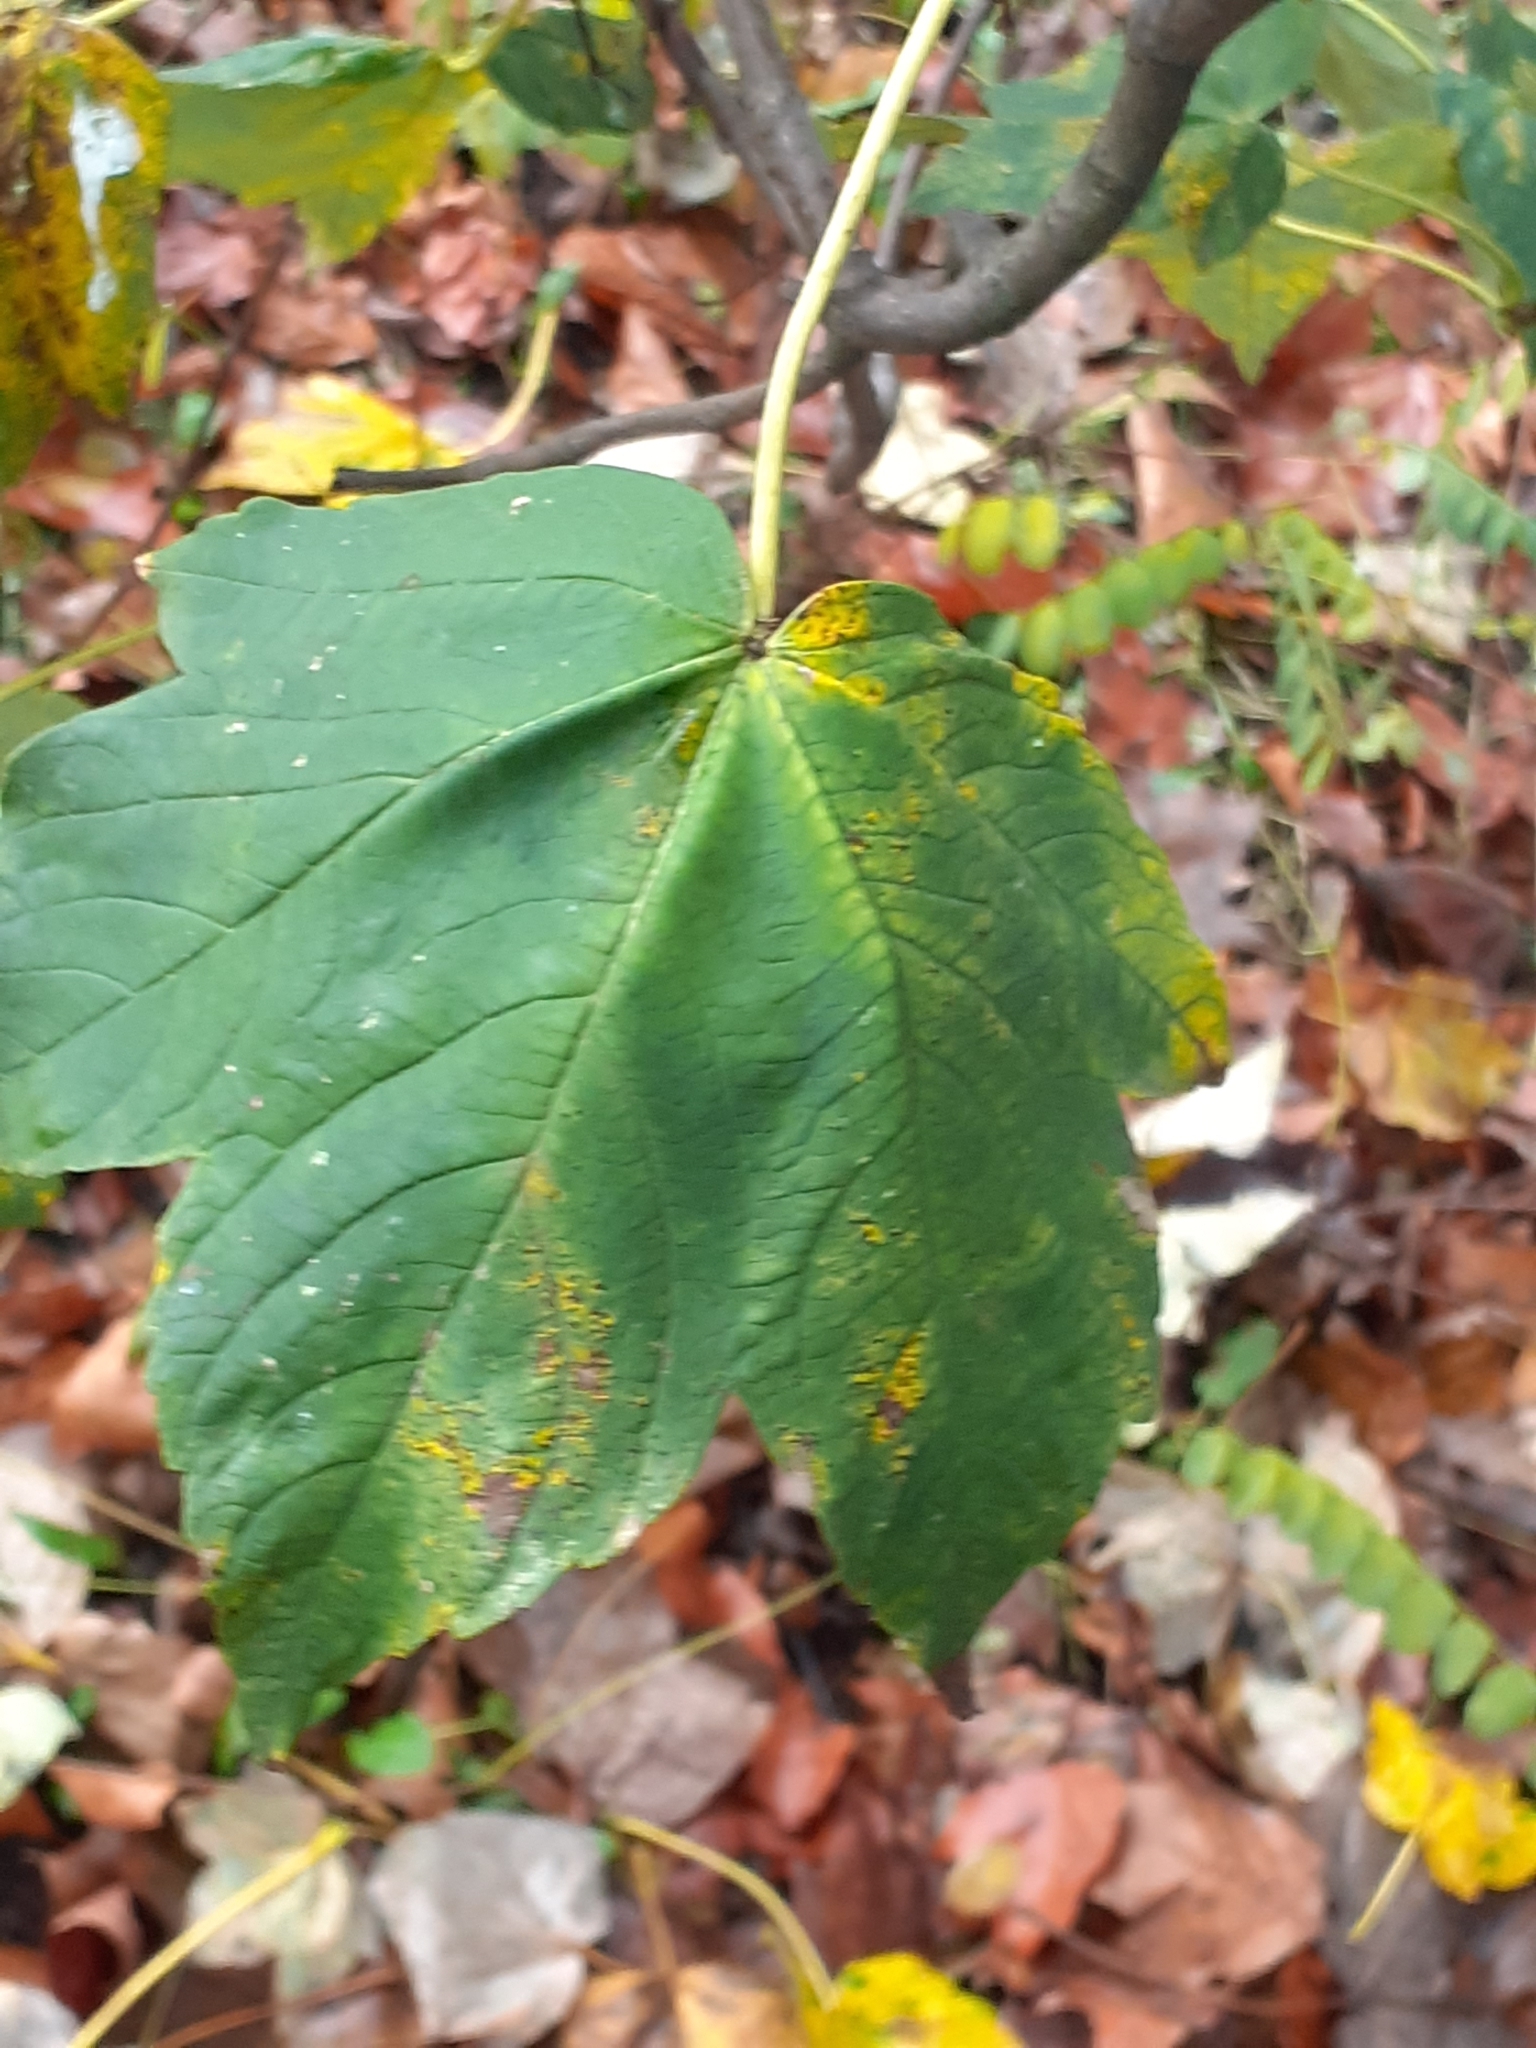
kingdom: Plantae
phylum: Tracheophyta
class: Magnoliopsida
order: Sapindales
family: Sapindaceae
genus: Acer
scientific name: Acer pseudoplatanus
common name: Sycamore
